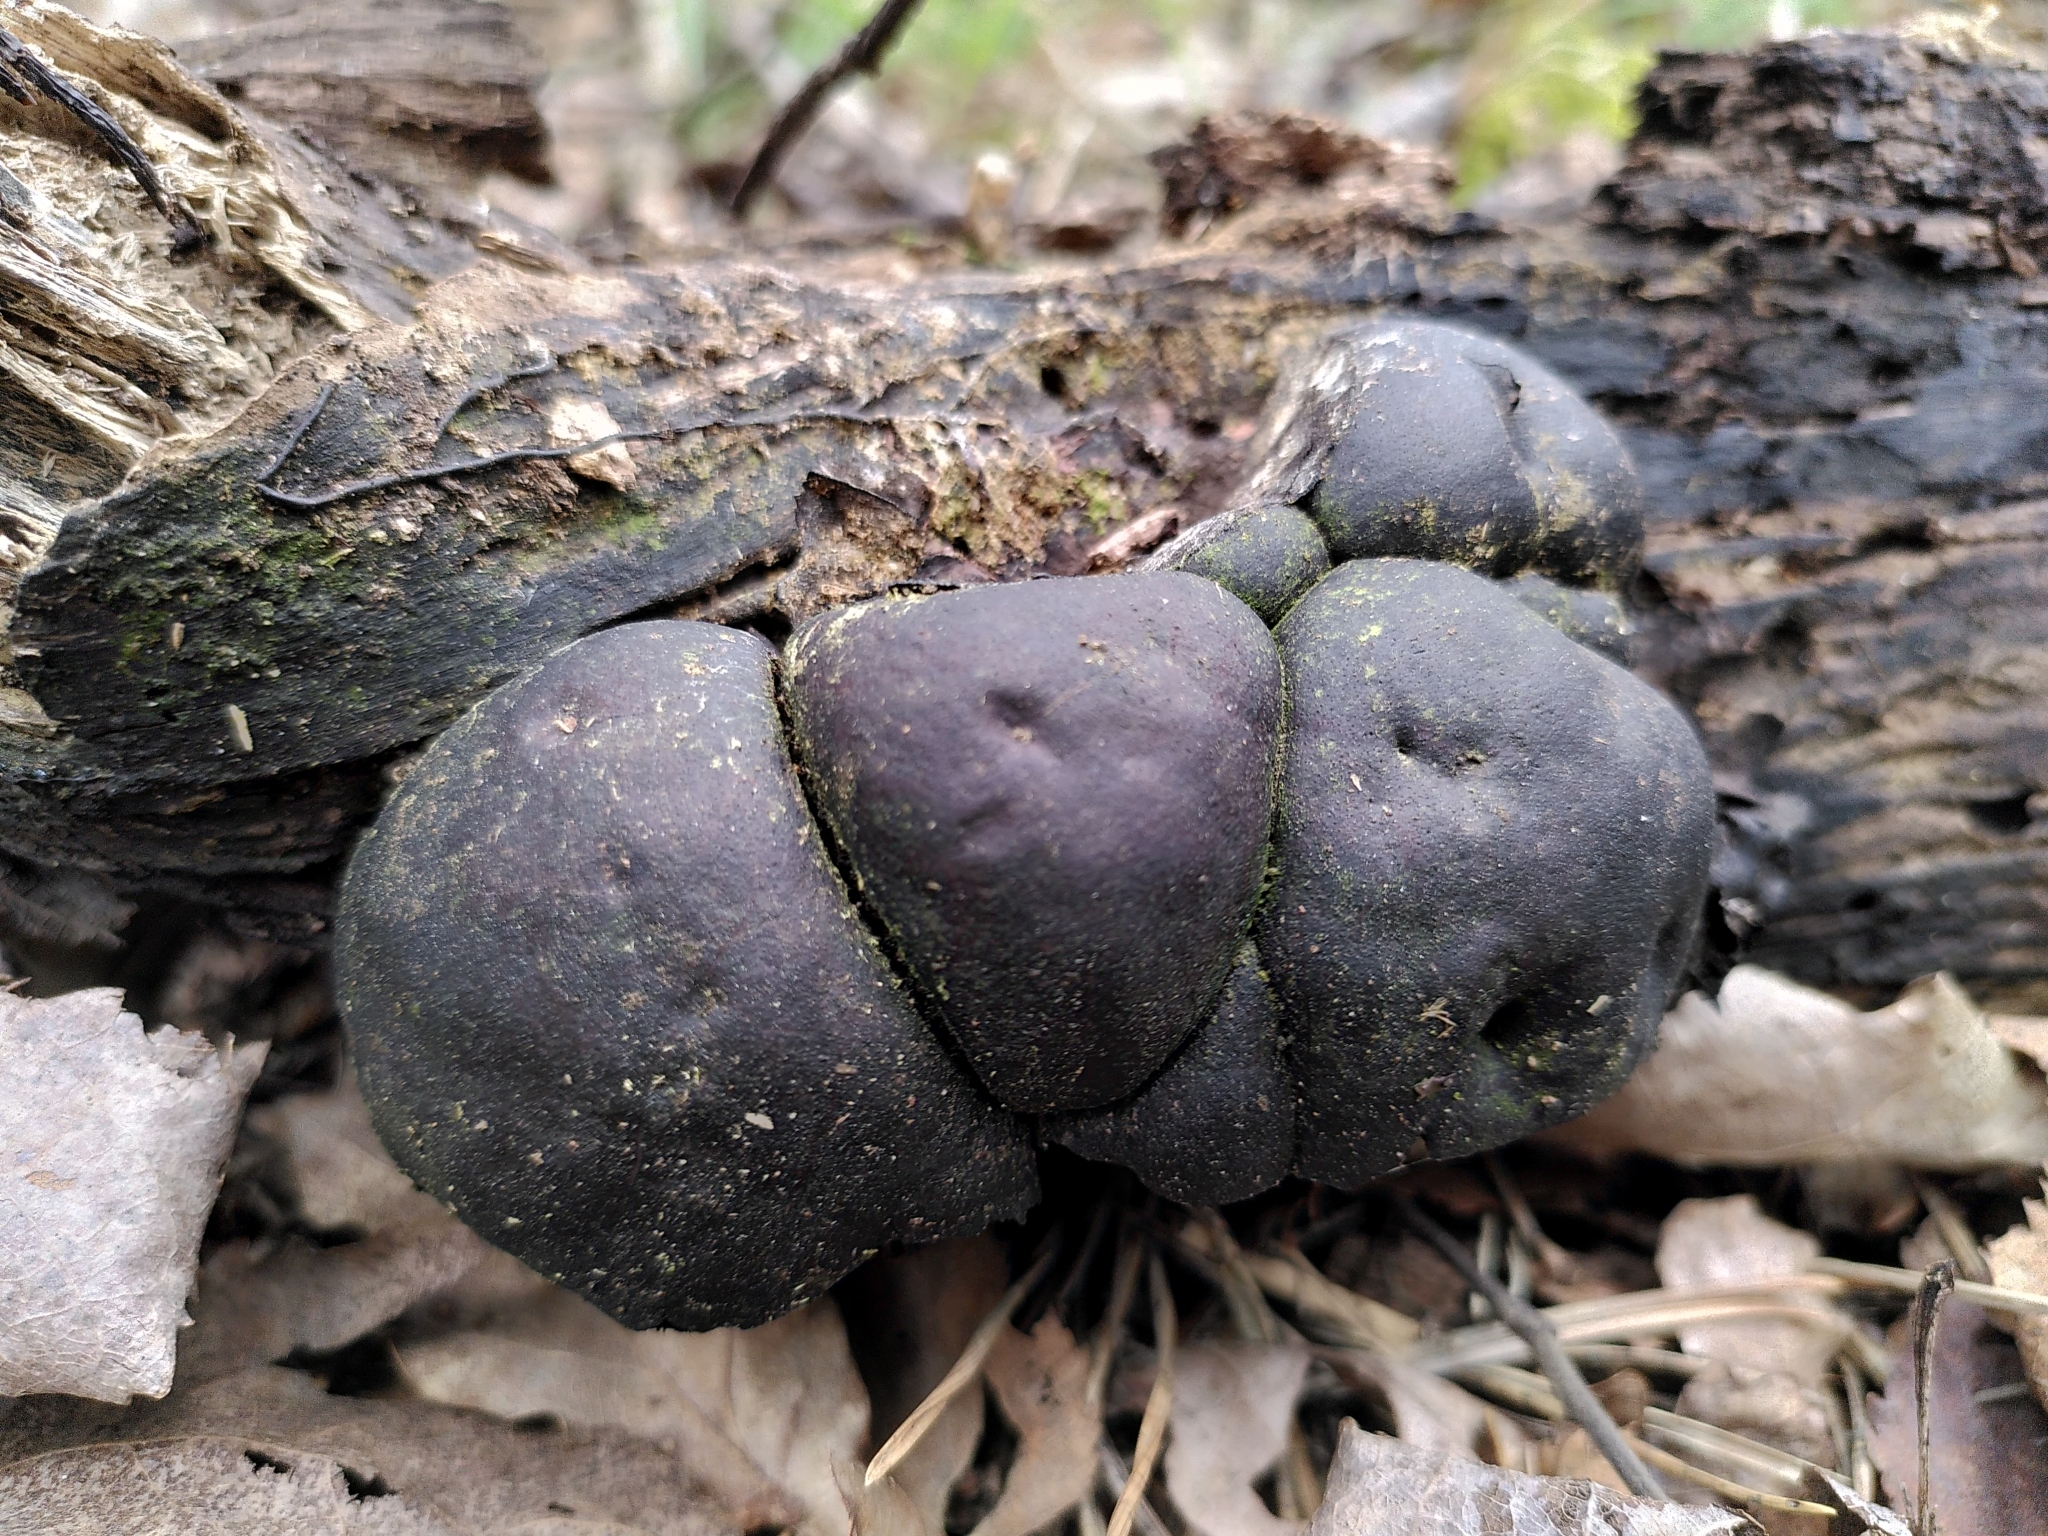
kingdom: Fungi
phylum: Ascomycota
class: Sordariomycetes
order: Xylariales
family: Hypoxylaceae
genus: Daldinia
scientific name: Daldinia concentrica
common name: Cramp balls
